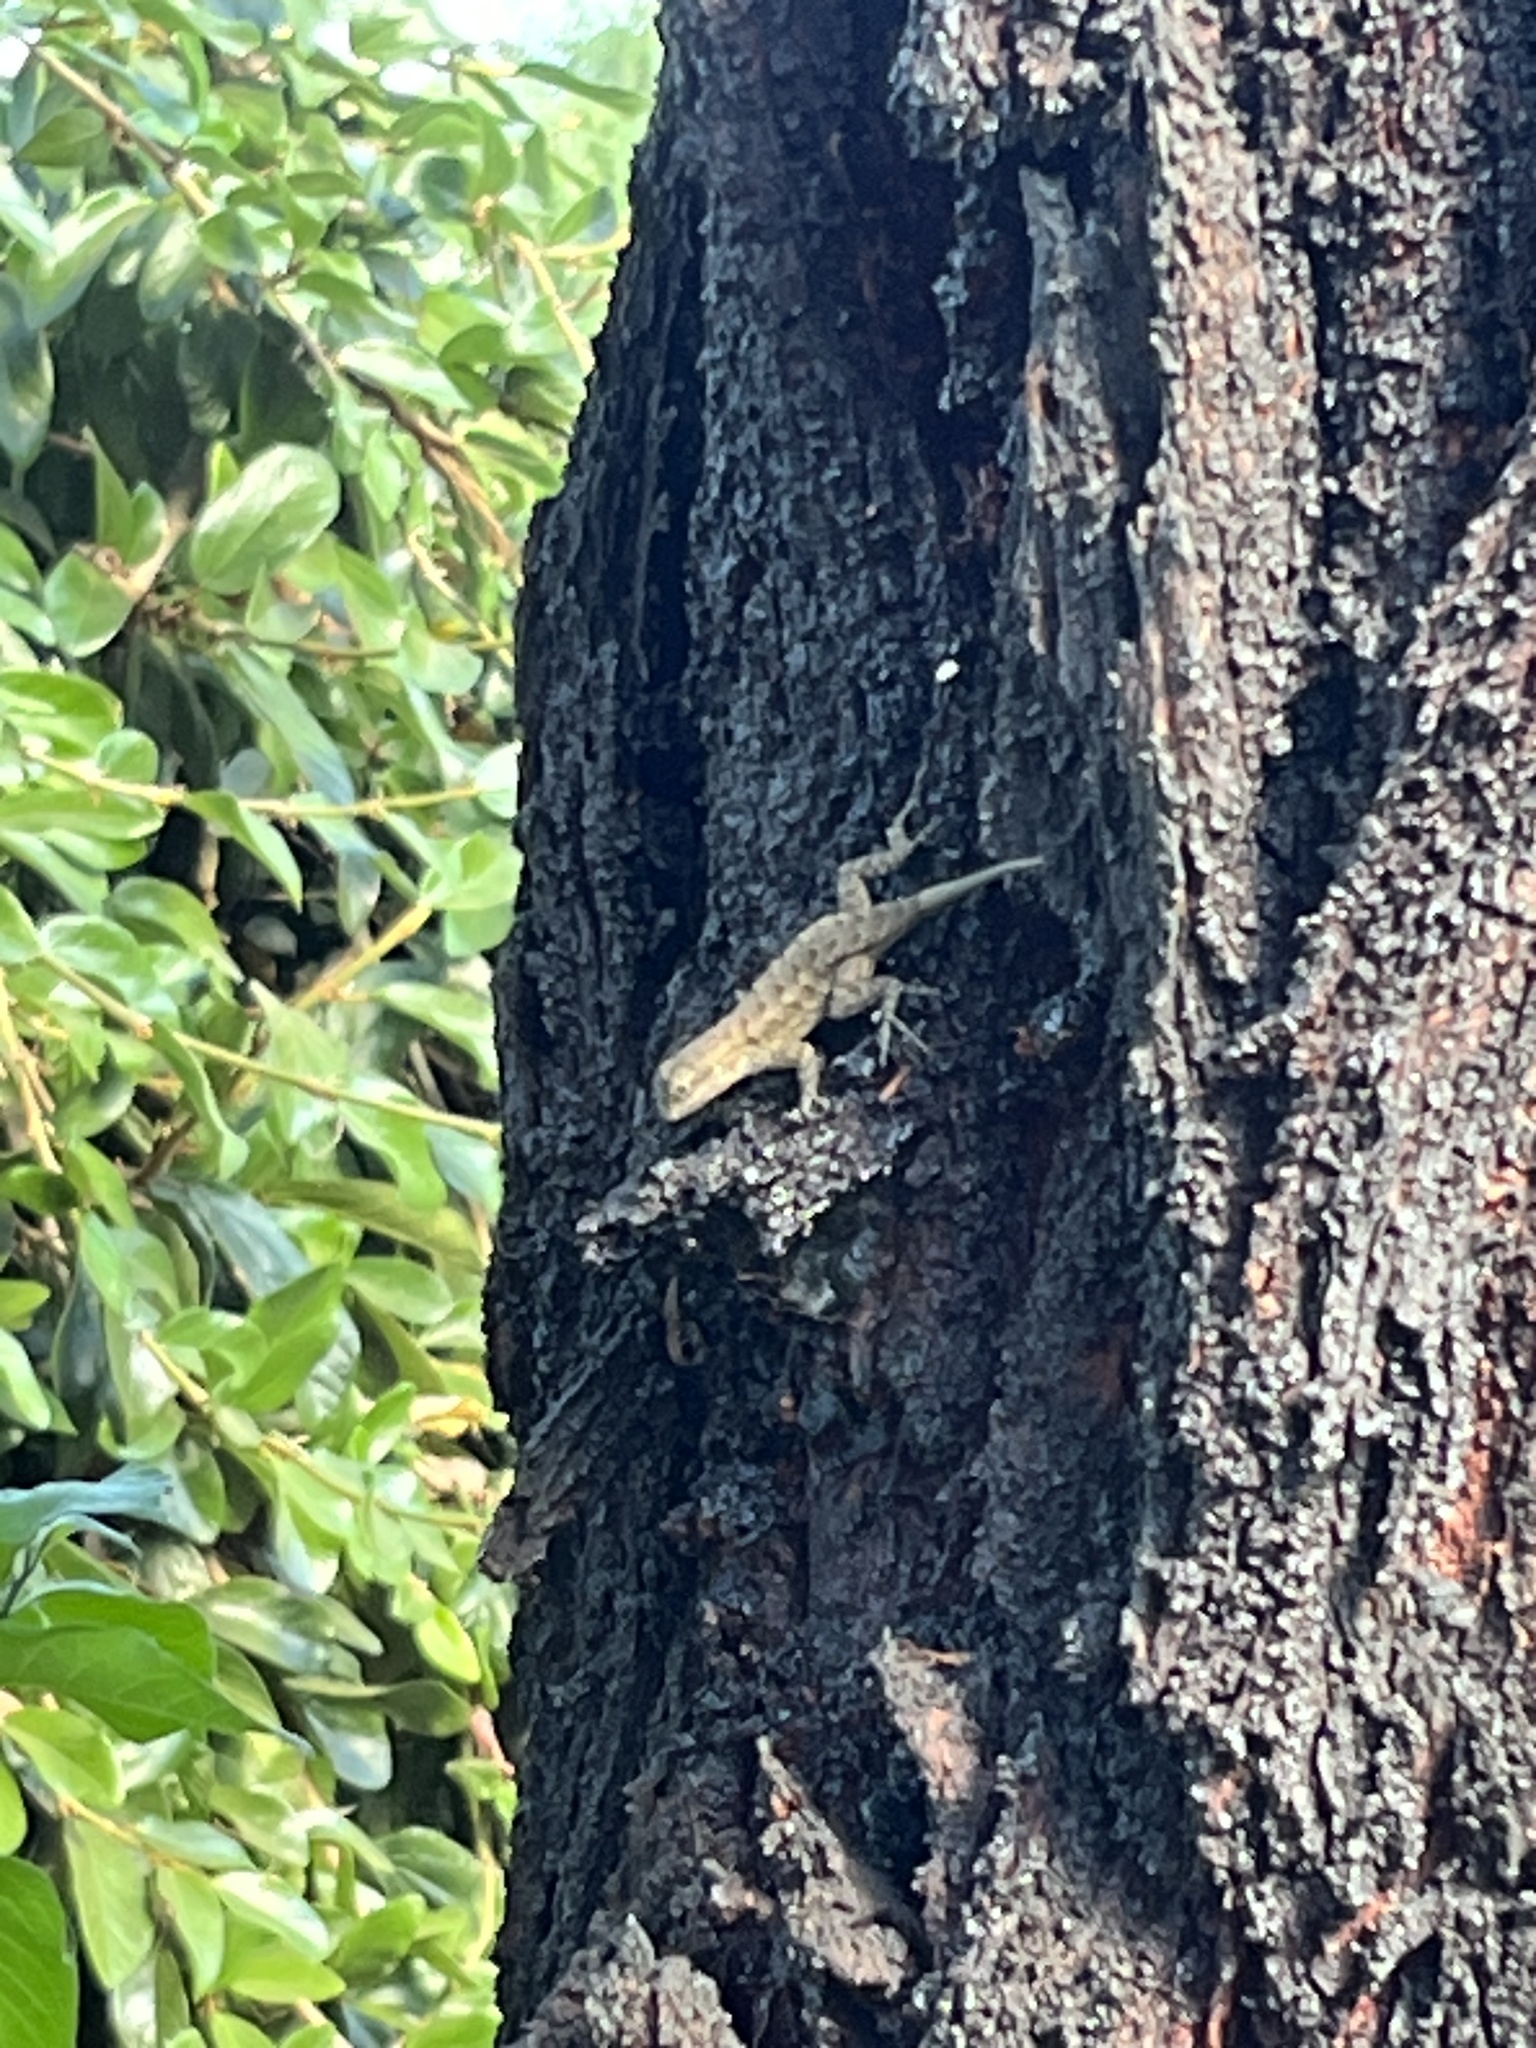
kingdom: Animalia
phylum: Chordata
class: Squamata
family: Phrynosomatidae
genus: Sceloporus
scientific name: Sceloporus occidentalis
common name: Western fence lizard
